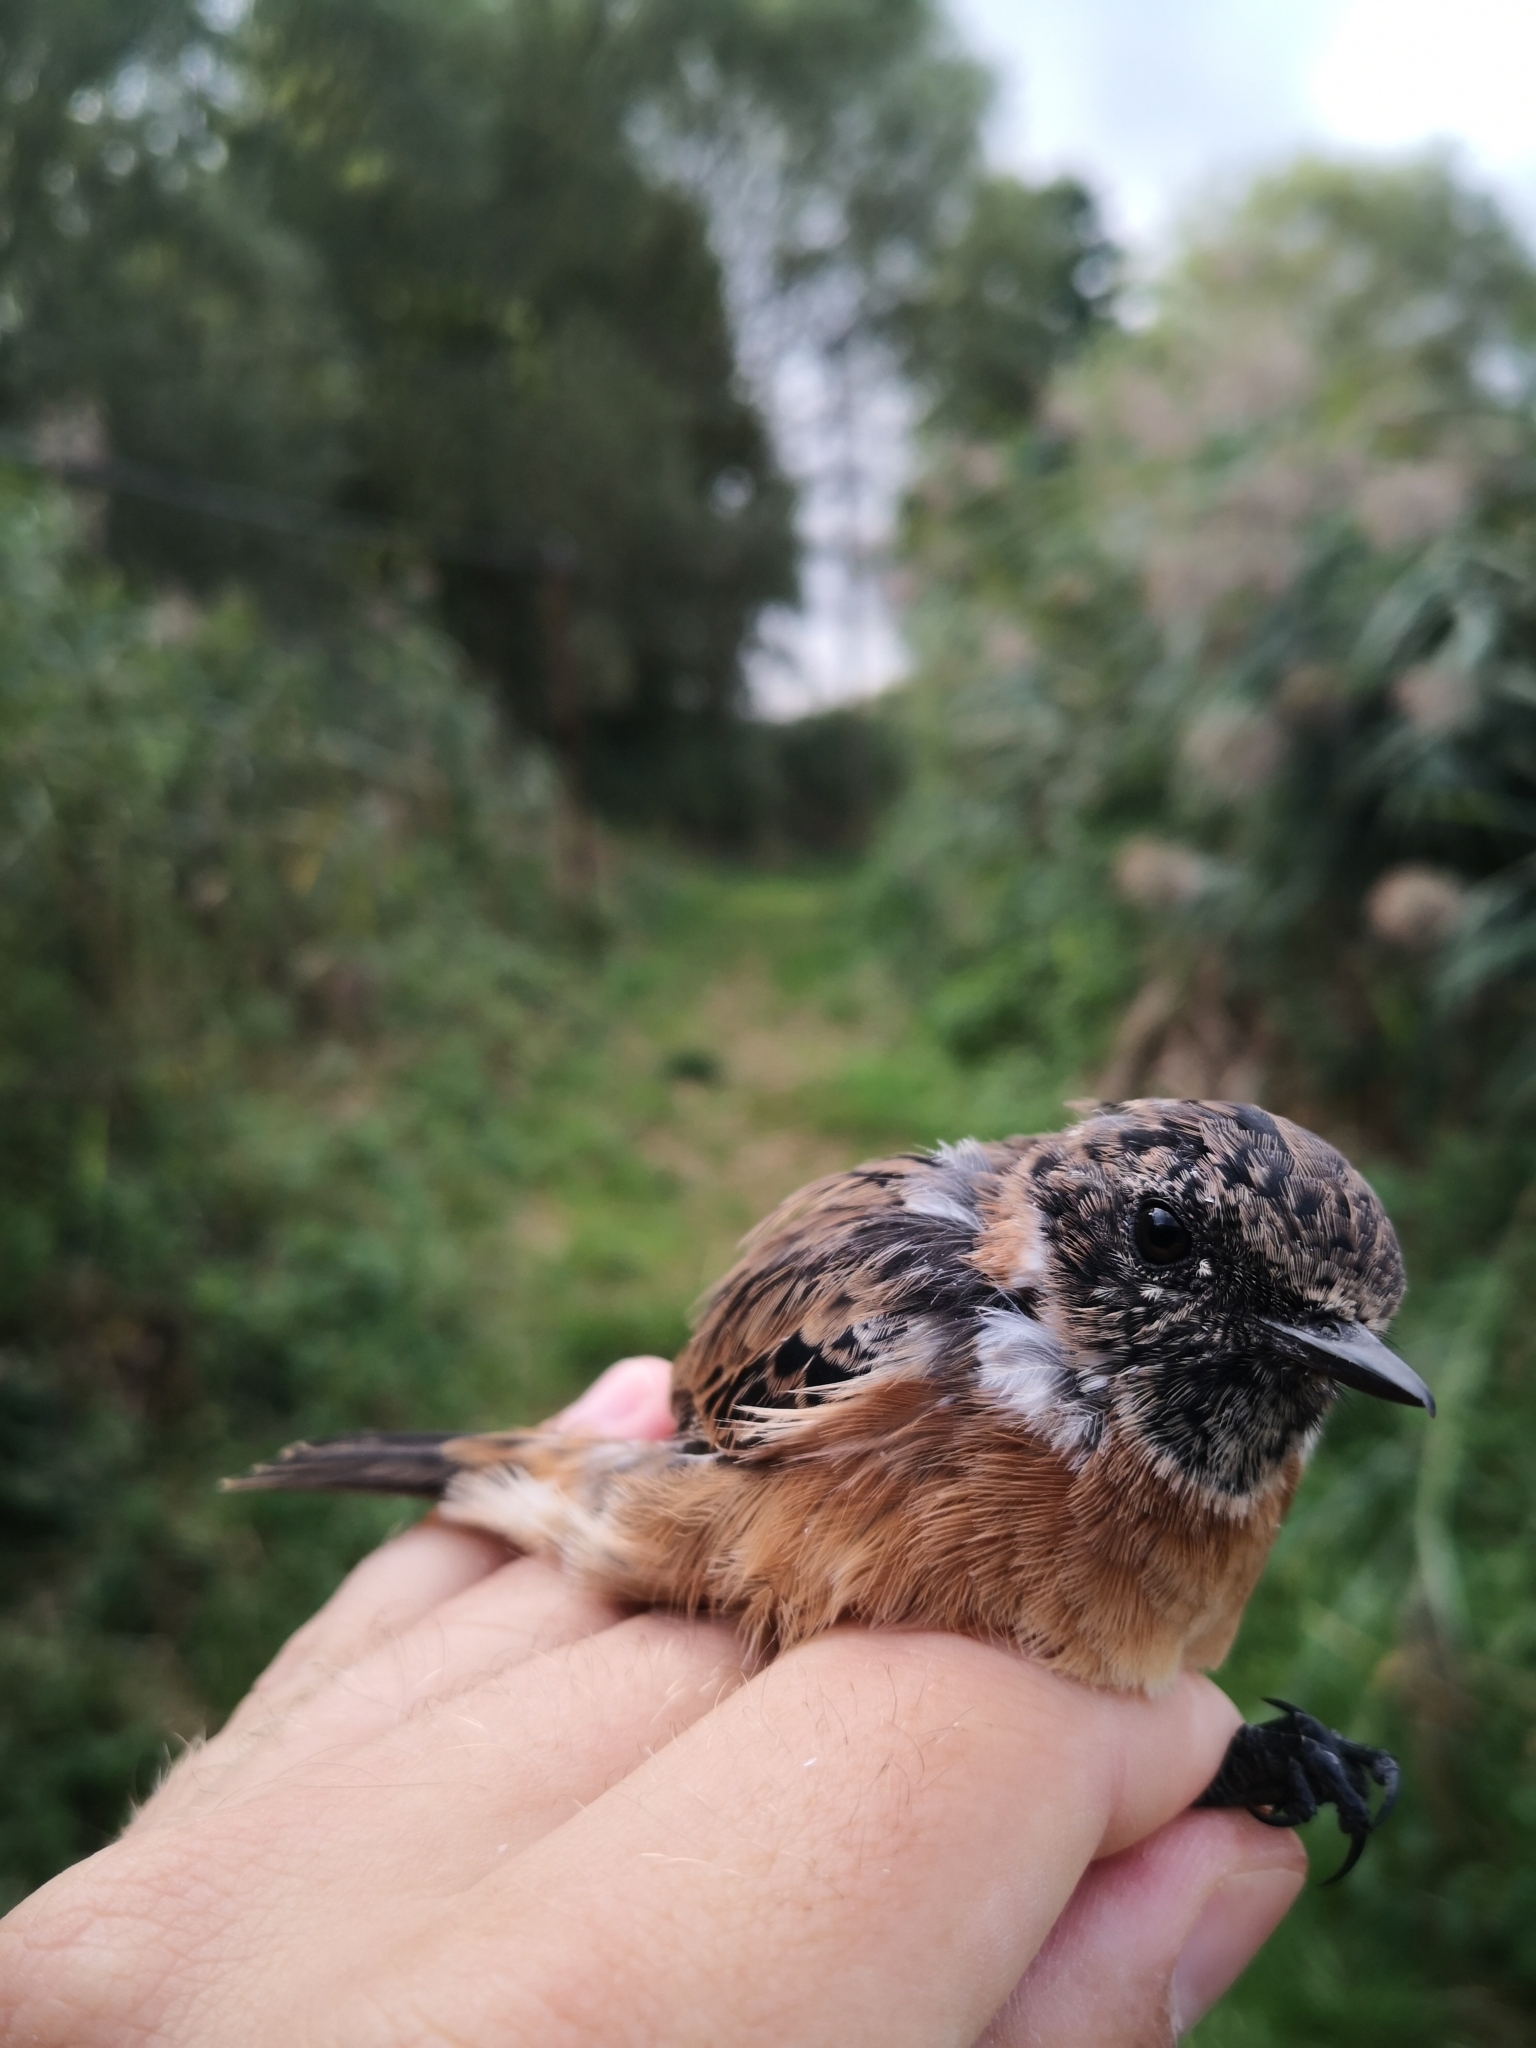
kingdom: Animalia
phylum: Chordata
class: Aves
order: Passeriformes
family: Muscicapidae
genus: Saxicola
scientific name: Saxicola rubicola
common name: European stonechat
